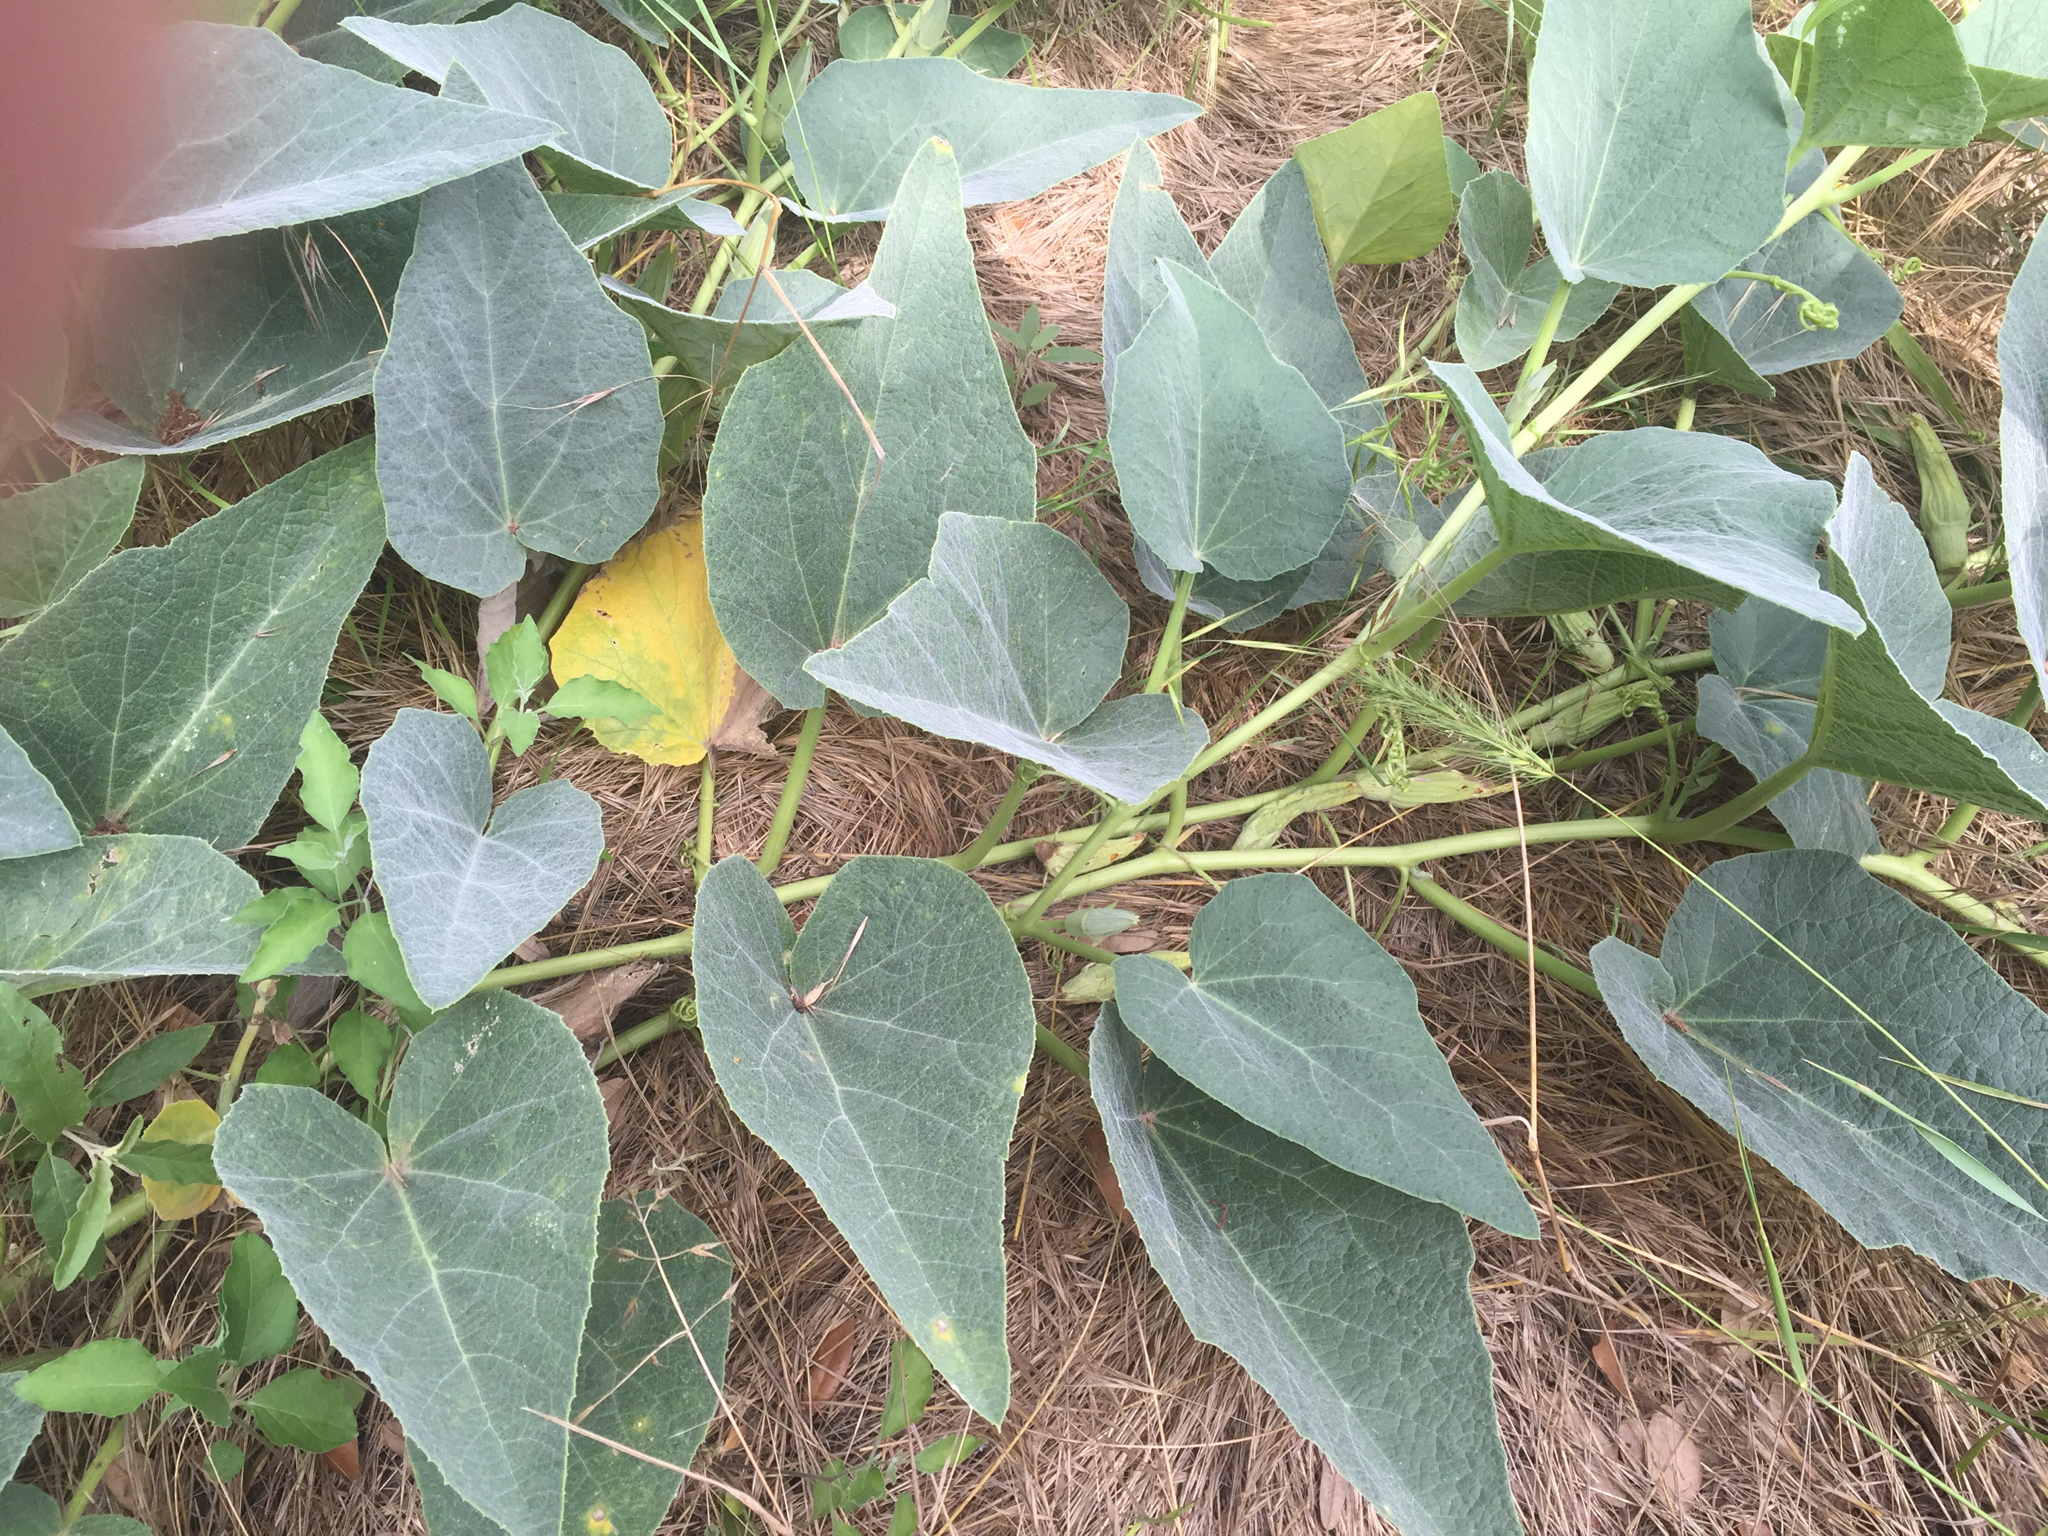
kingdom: Plantae
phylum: Tracheophyta
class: Magnoliopsida
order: Cucurbitales
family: Cucurbitaceae
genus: Cucurbita
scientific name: Cucurbita foetidissima
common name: Buffalo gourd
